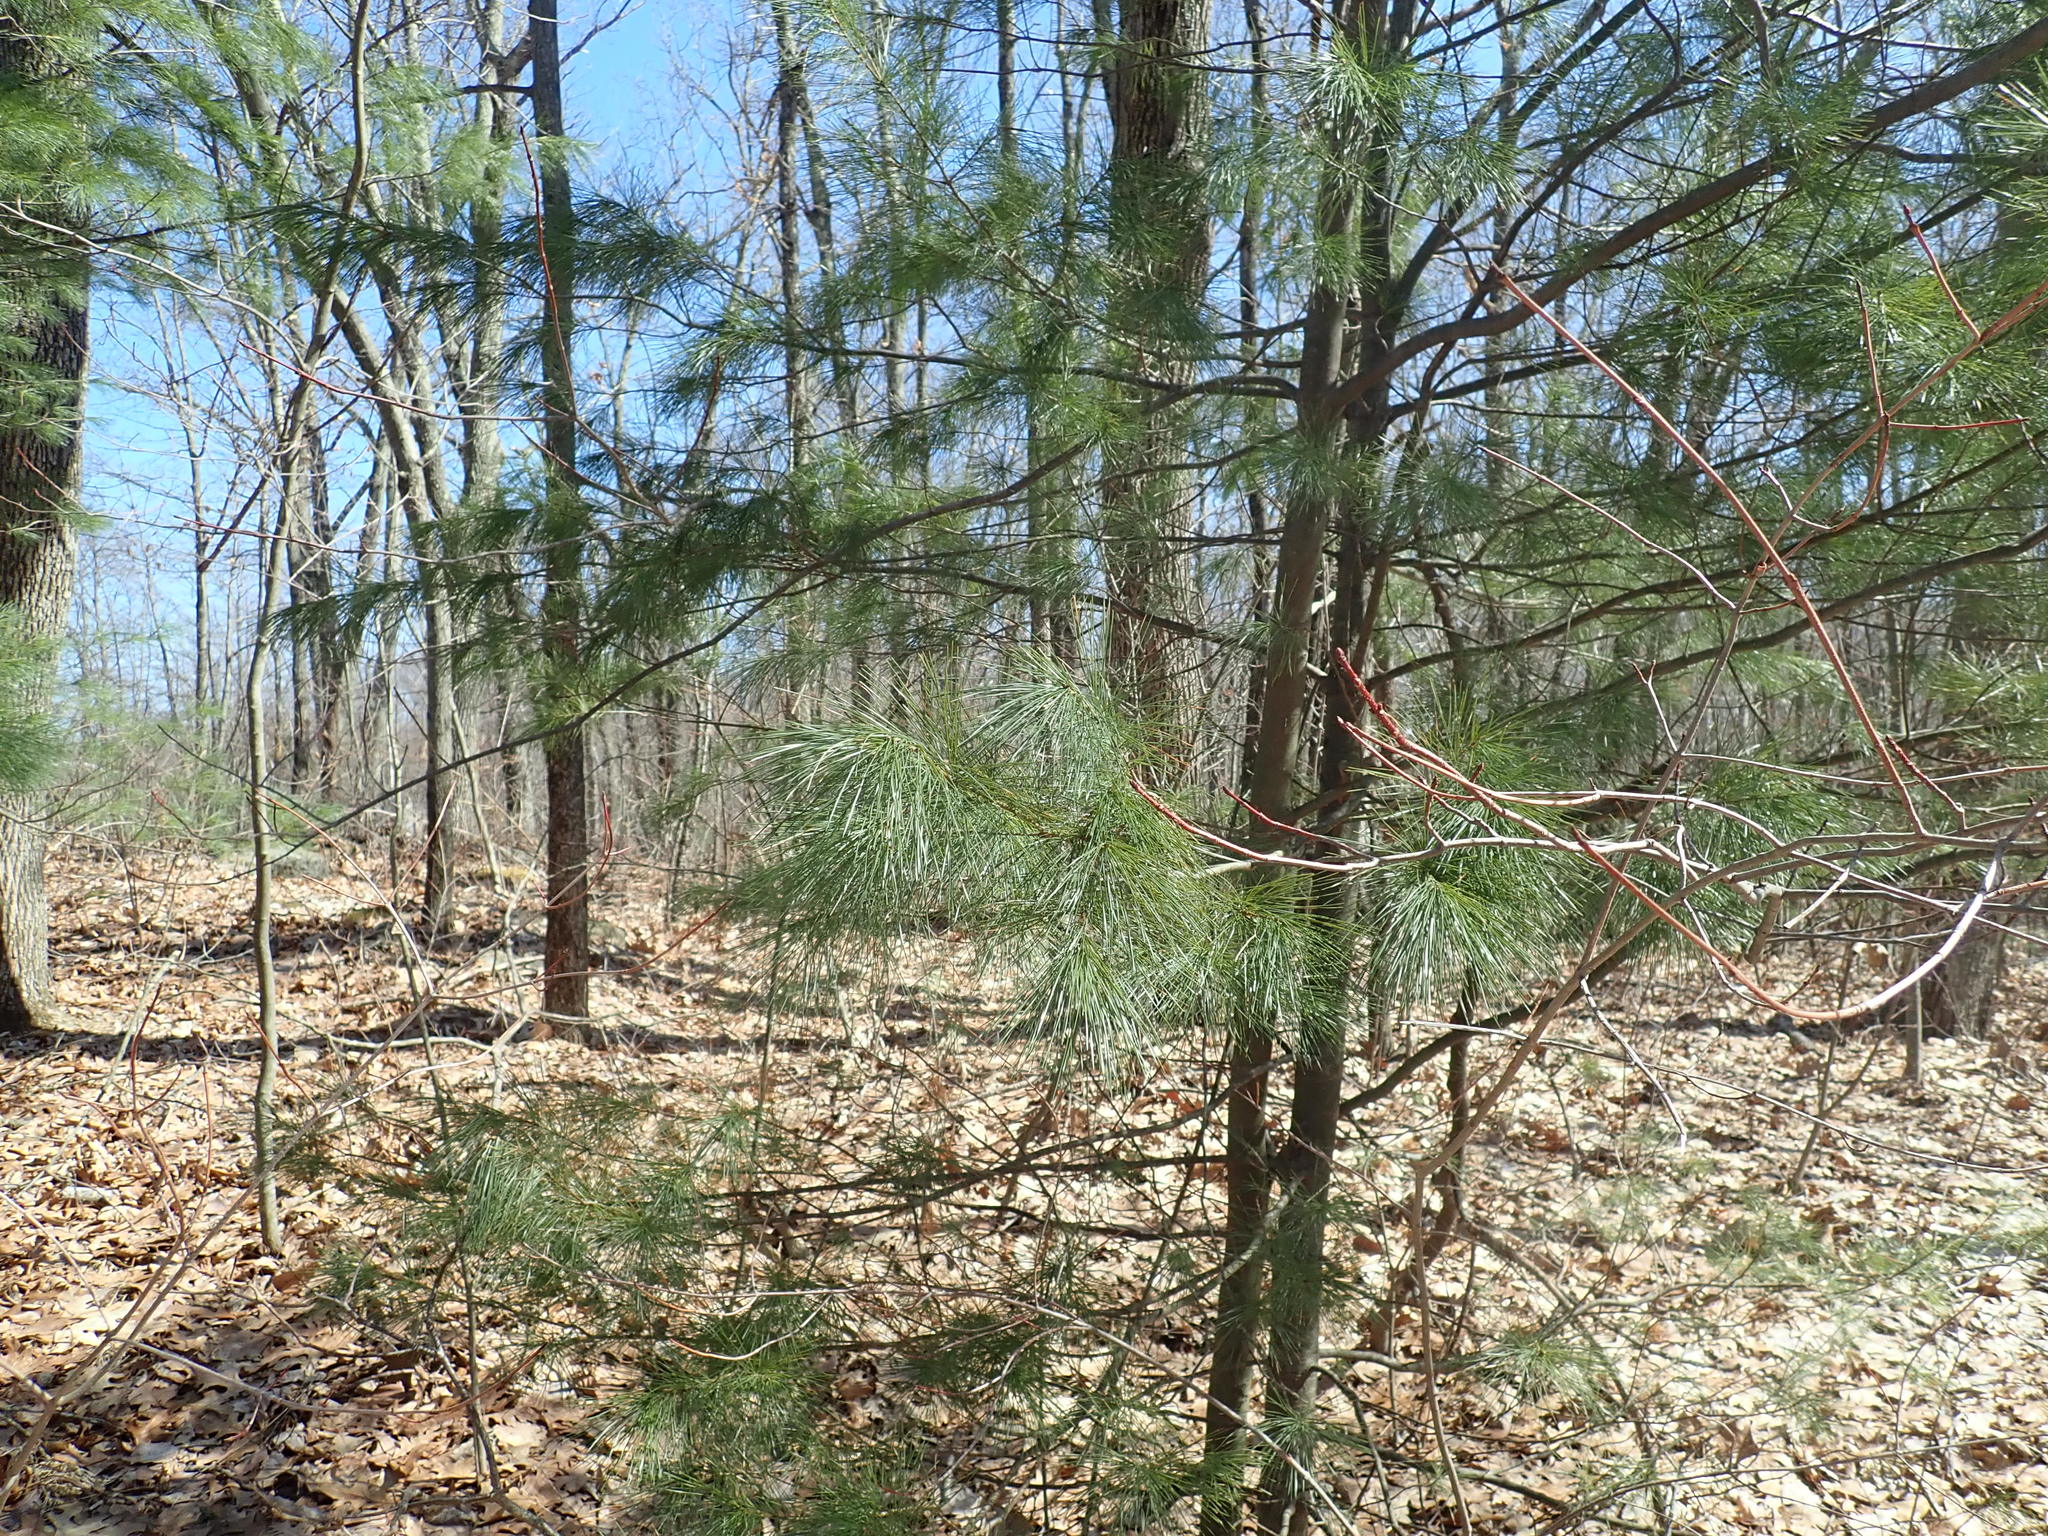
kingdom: Plantae
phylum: Tracheophyta
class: Pinopsida
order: Pinales
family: Pinaceae
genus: Pinus
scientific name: Pinus strobus
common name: Weymouth pine
